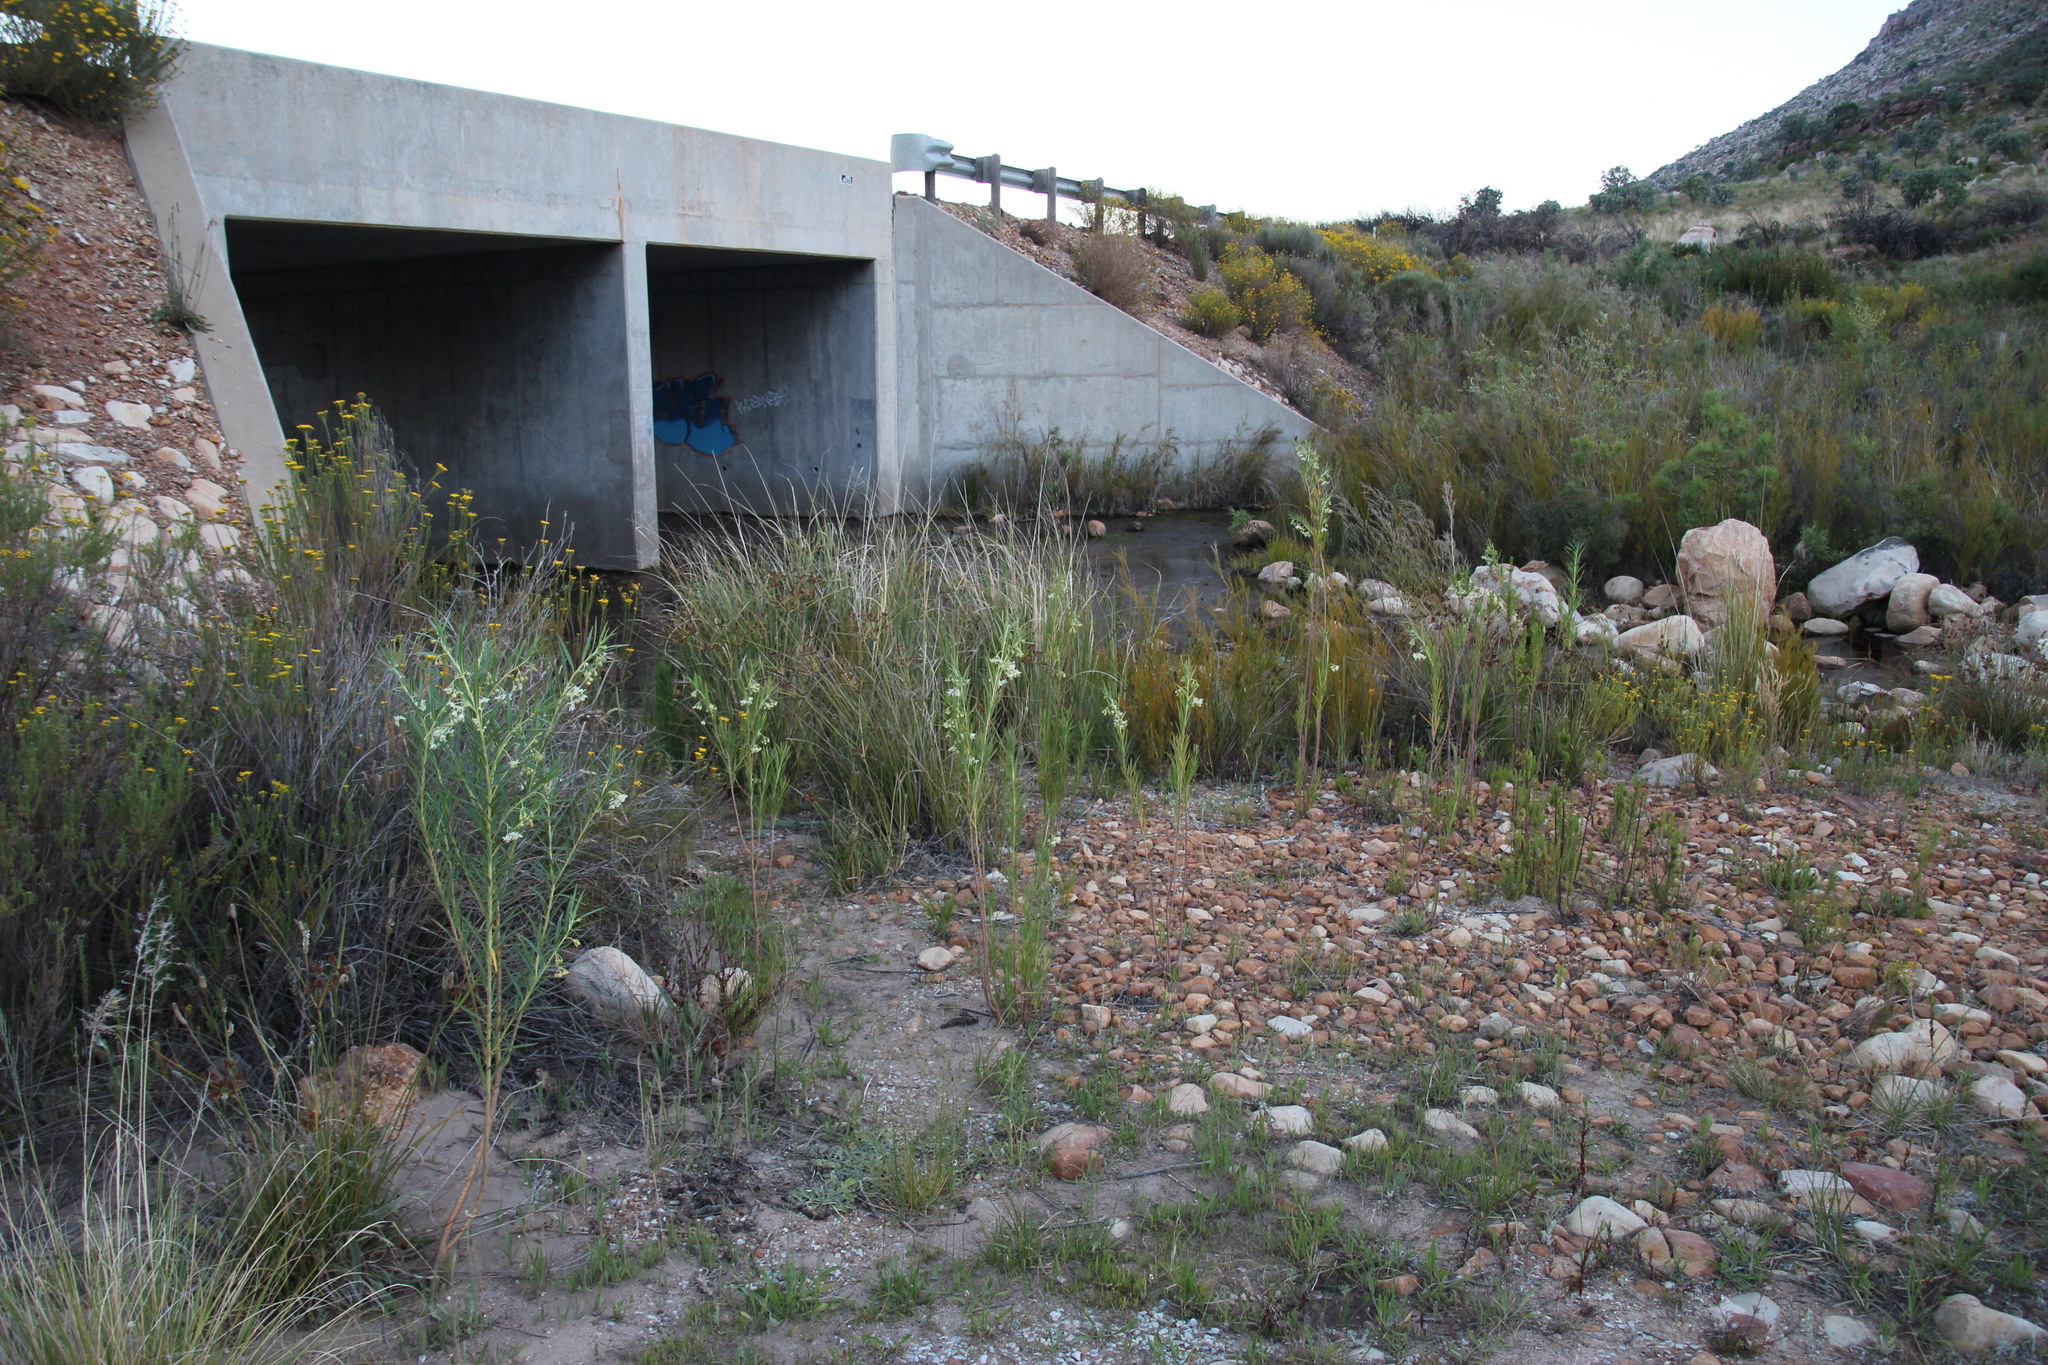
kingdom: Plantae
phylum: Tracheophyta
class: Magnoliopsida
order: Gentianales
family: Apocynaceae
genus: Gomphocarpus
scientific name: Gomphocarpus fruticosus
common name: Milkweed
